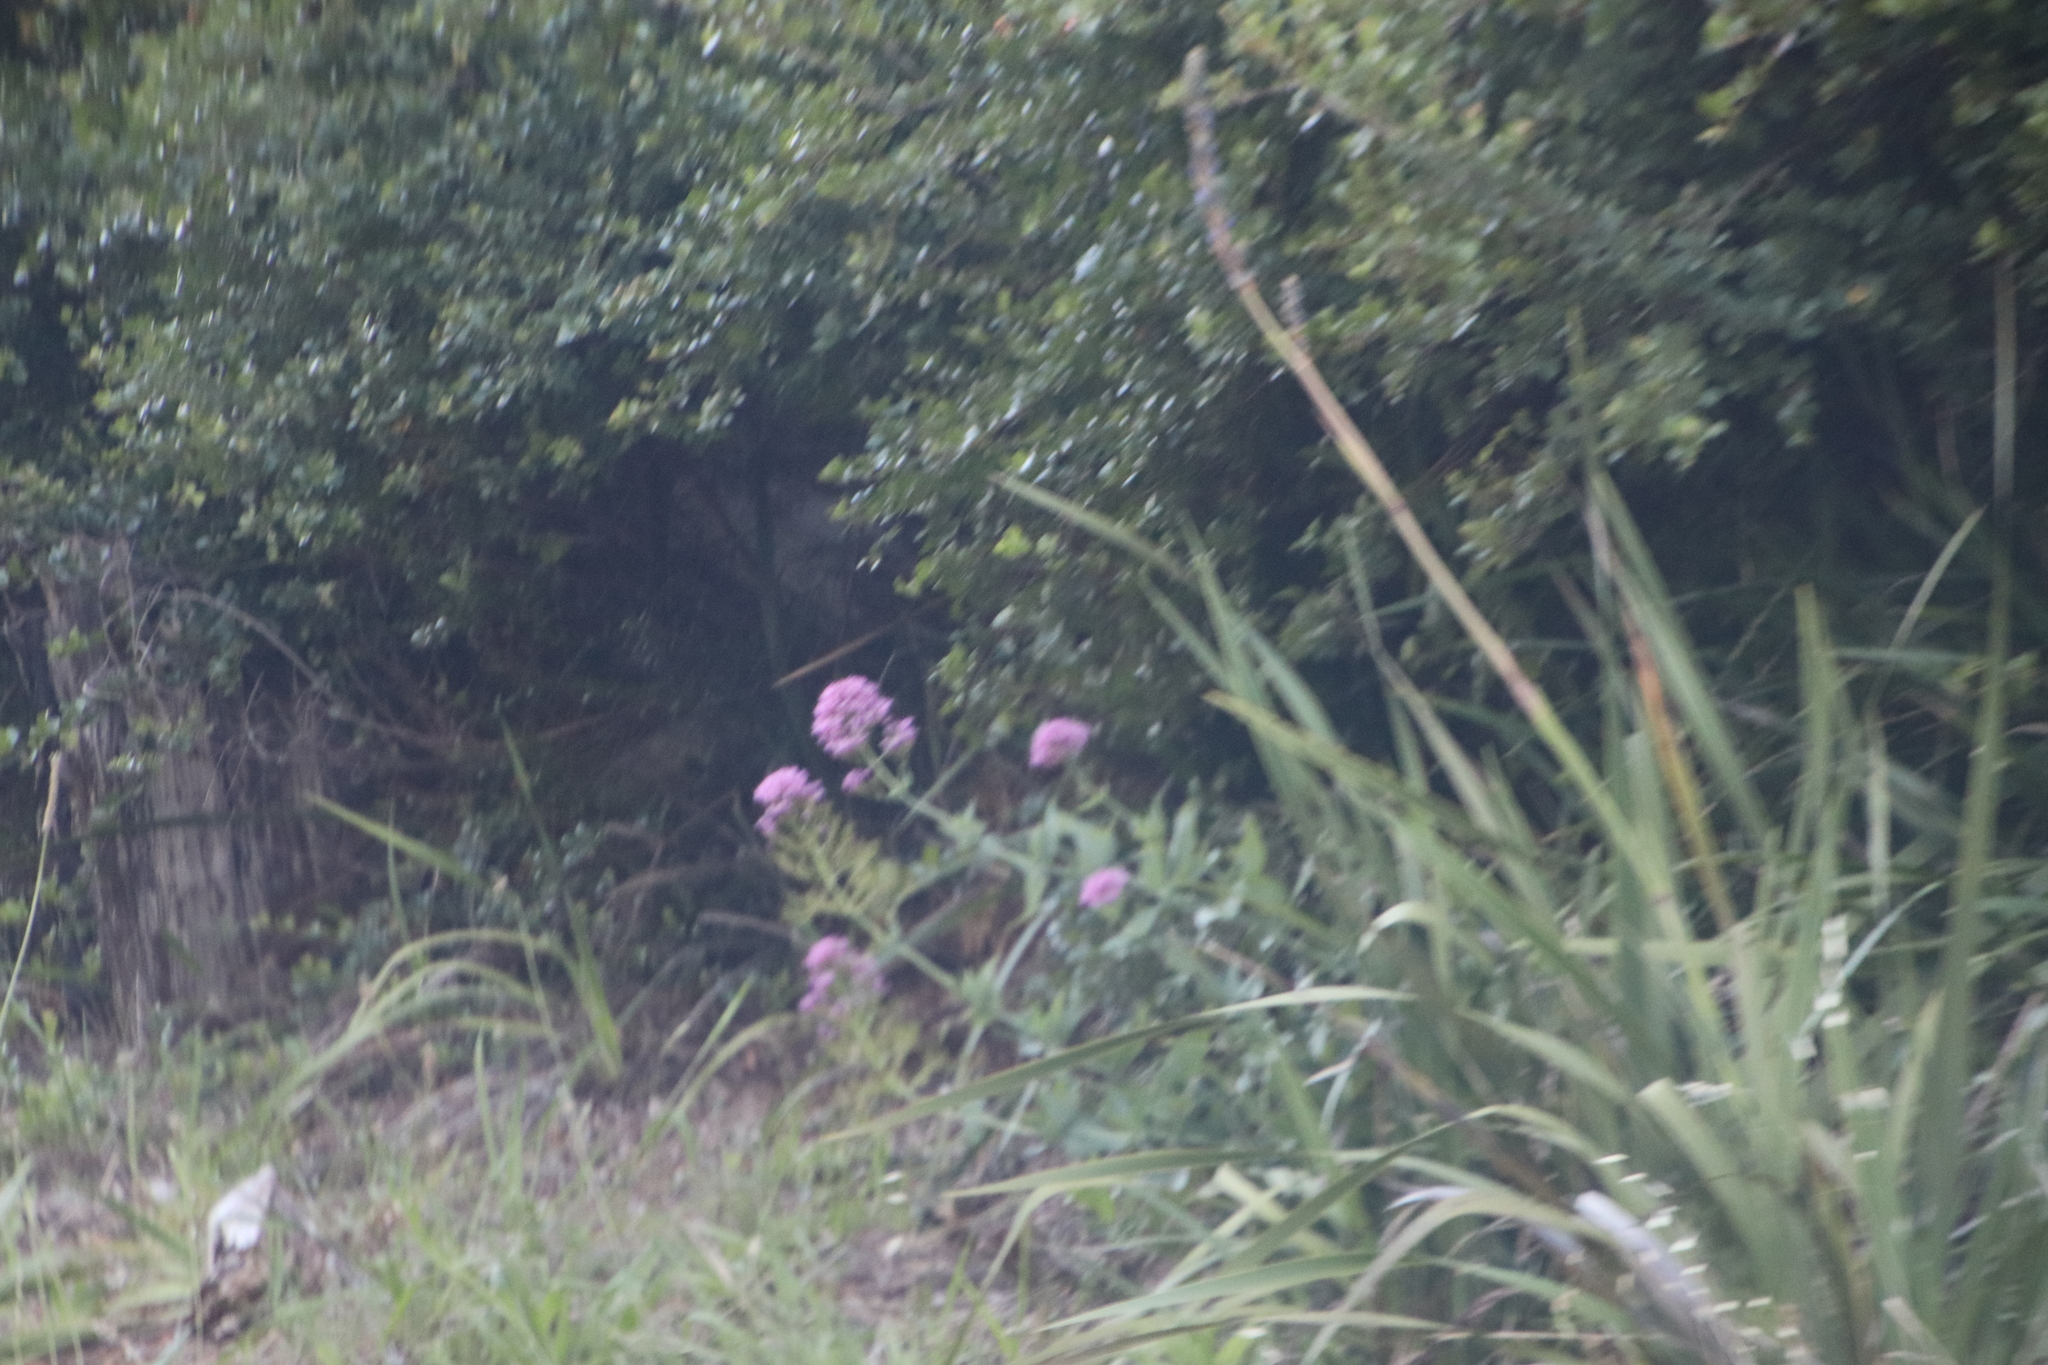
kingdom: Plantae
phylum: Tracheophyta
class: Magnoliopsida
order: Dipsacales
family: Caprifoliaceae
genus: Centranthus
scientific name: Centranthus ruber
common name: Red valerian
